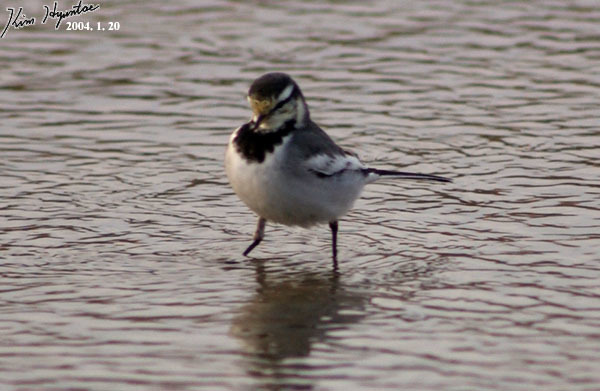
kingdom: Animalia
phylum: Chordata
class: Aves
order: Passeriformes
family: Motacillidae
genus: Motacilla
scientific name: Motacilla alba
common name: White wagtail
